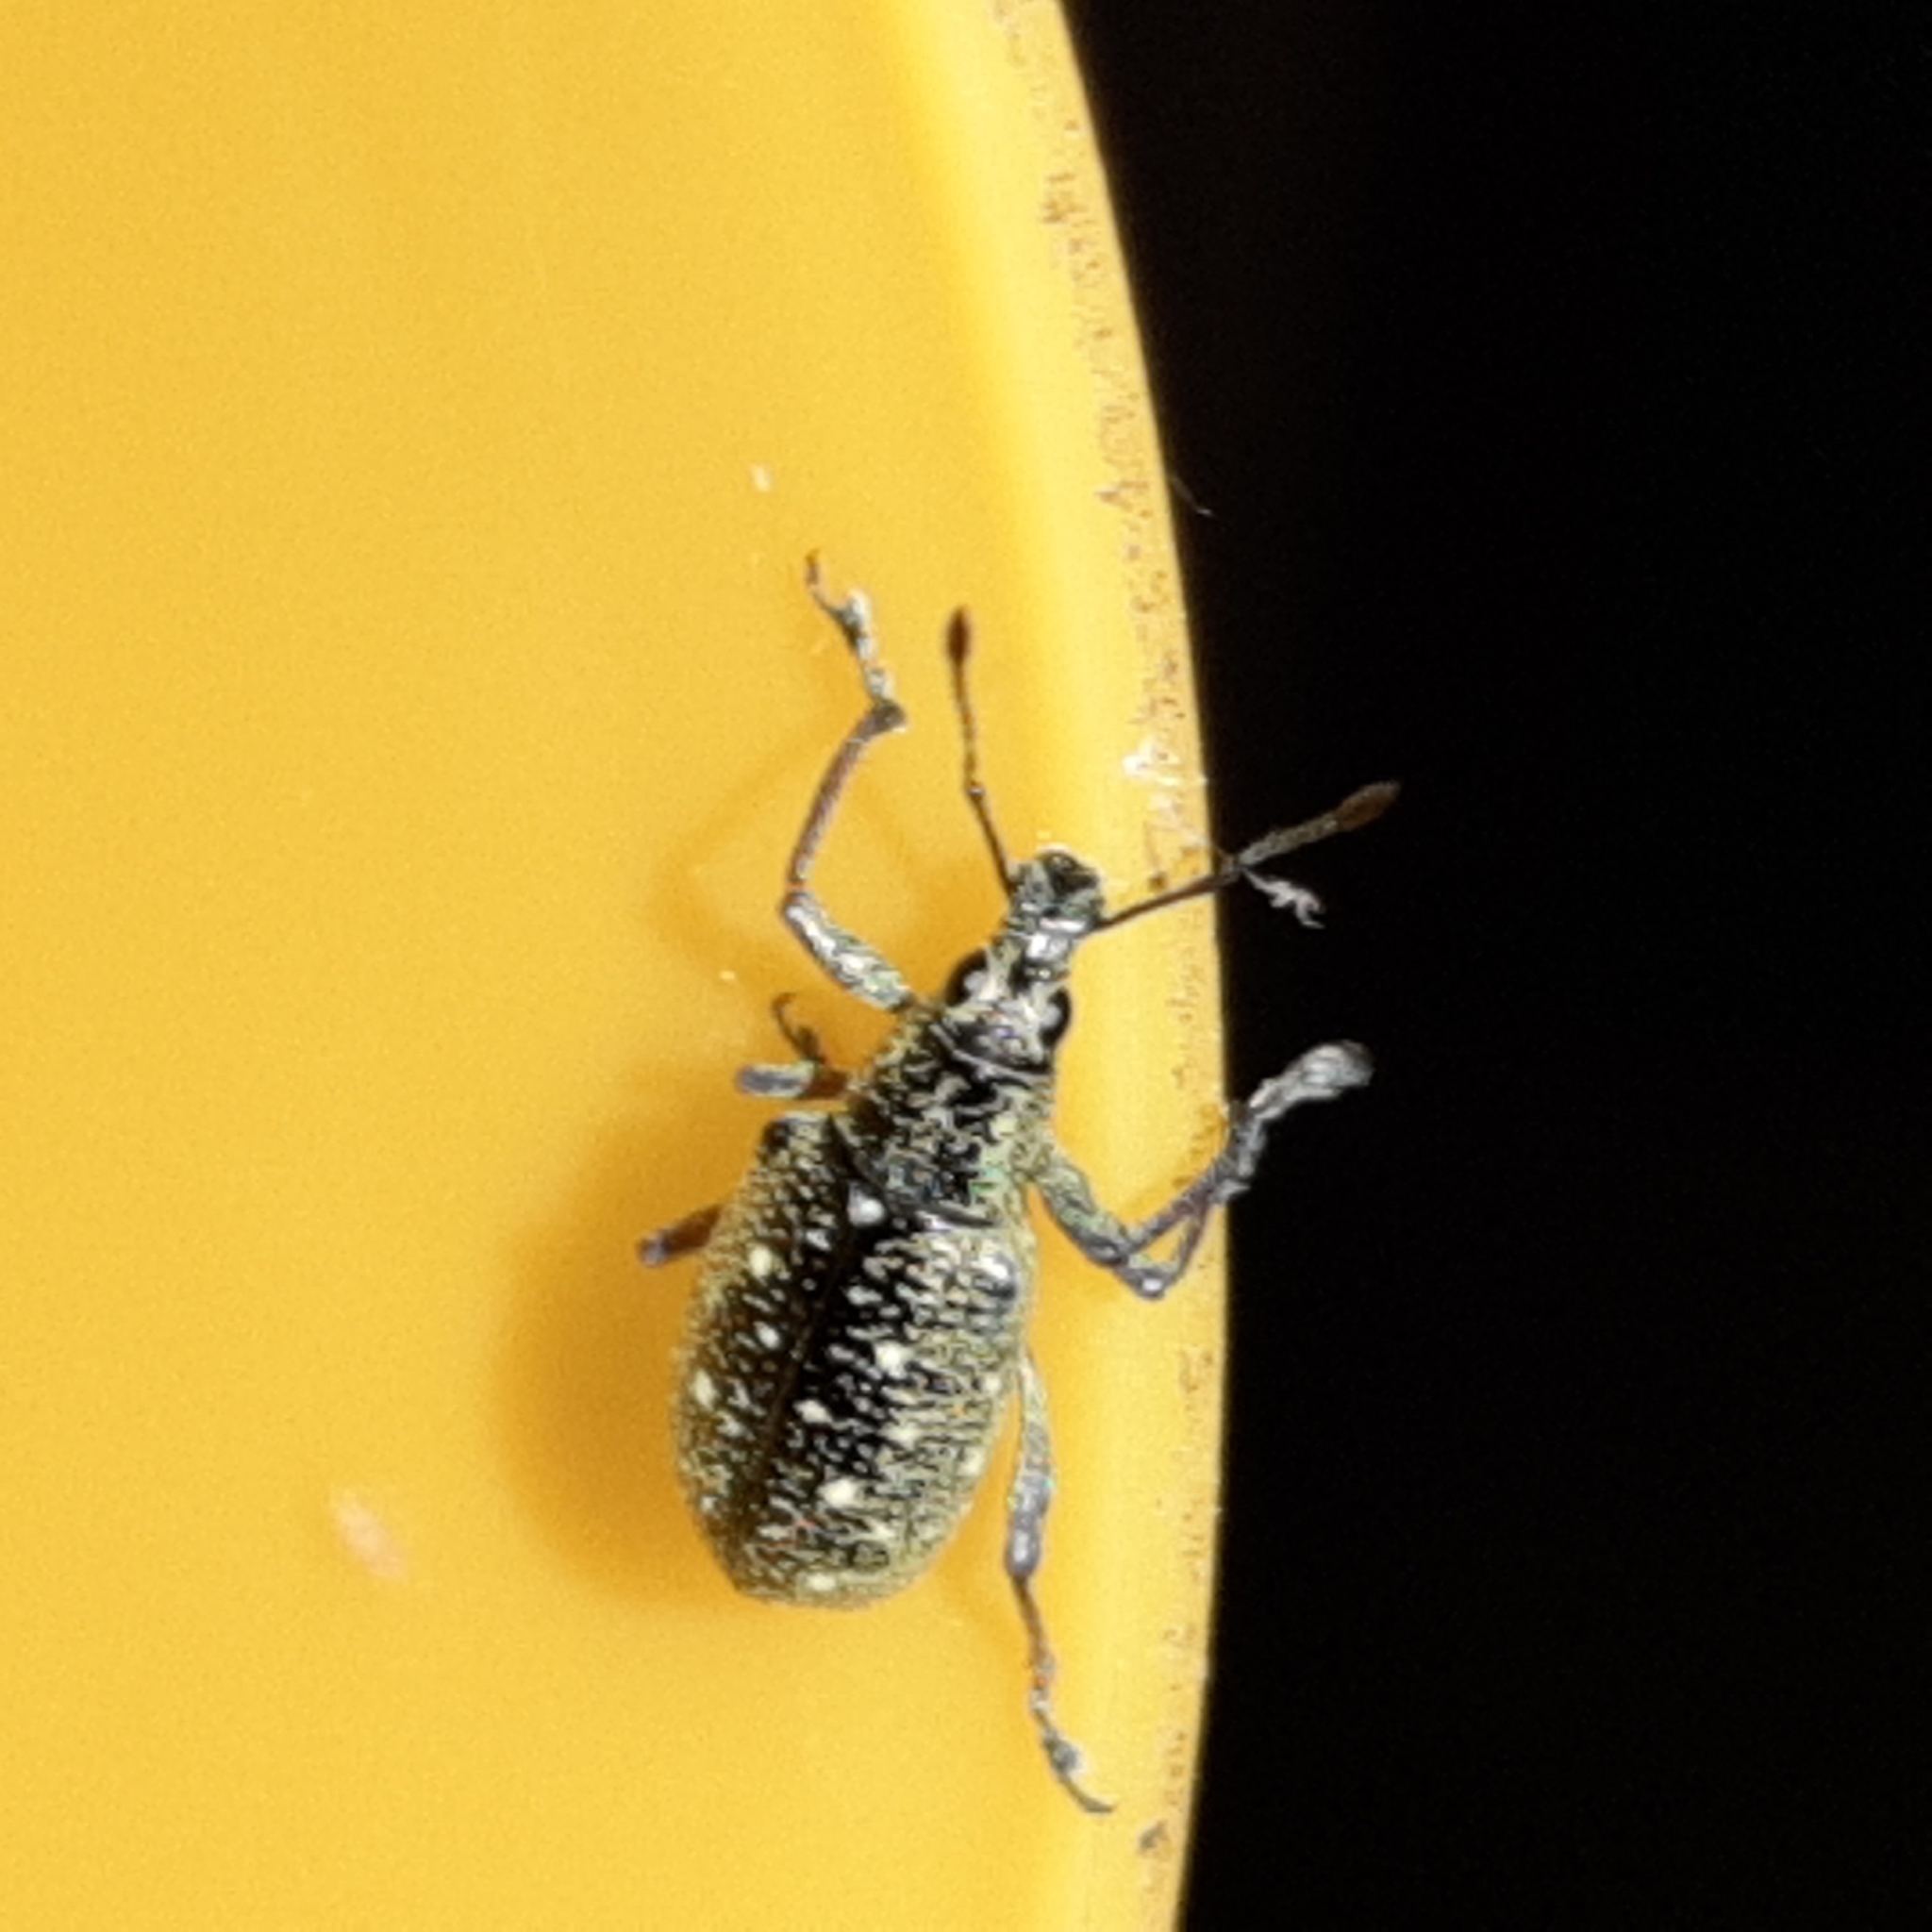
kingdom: Animalia
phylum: Arthropoda
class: Insecta
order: Coleoptera
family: Curculionidae
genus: Exophthalmus
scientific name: Exophthalmus jekelianus
